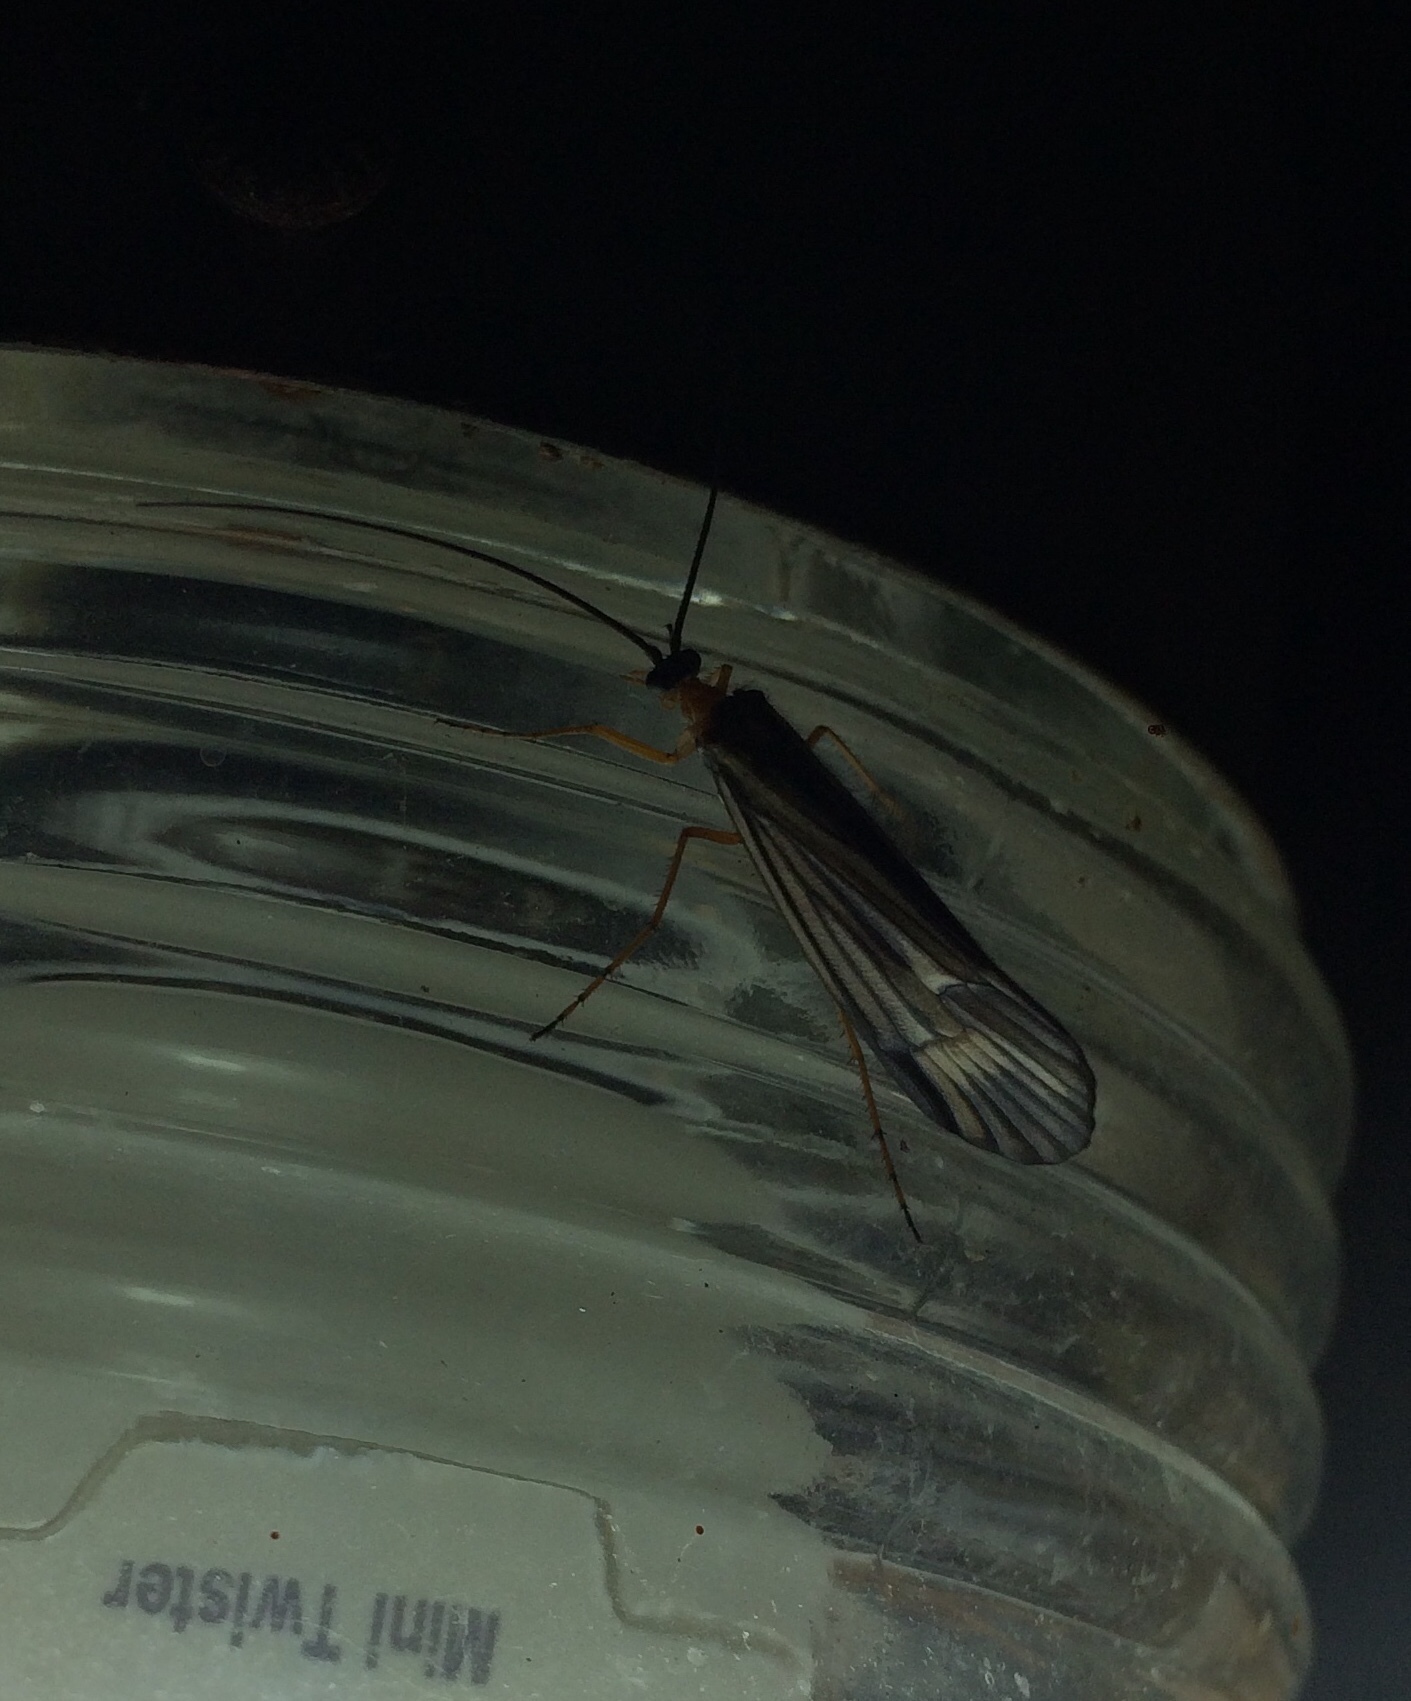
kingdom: Animalia
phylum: Arthropoda
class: Insecta
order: Trichoptera
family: Limnephilidae
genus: Halesochila
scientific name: Halesochila taylori
